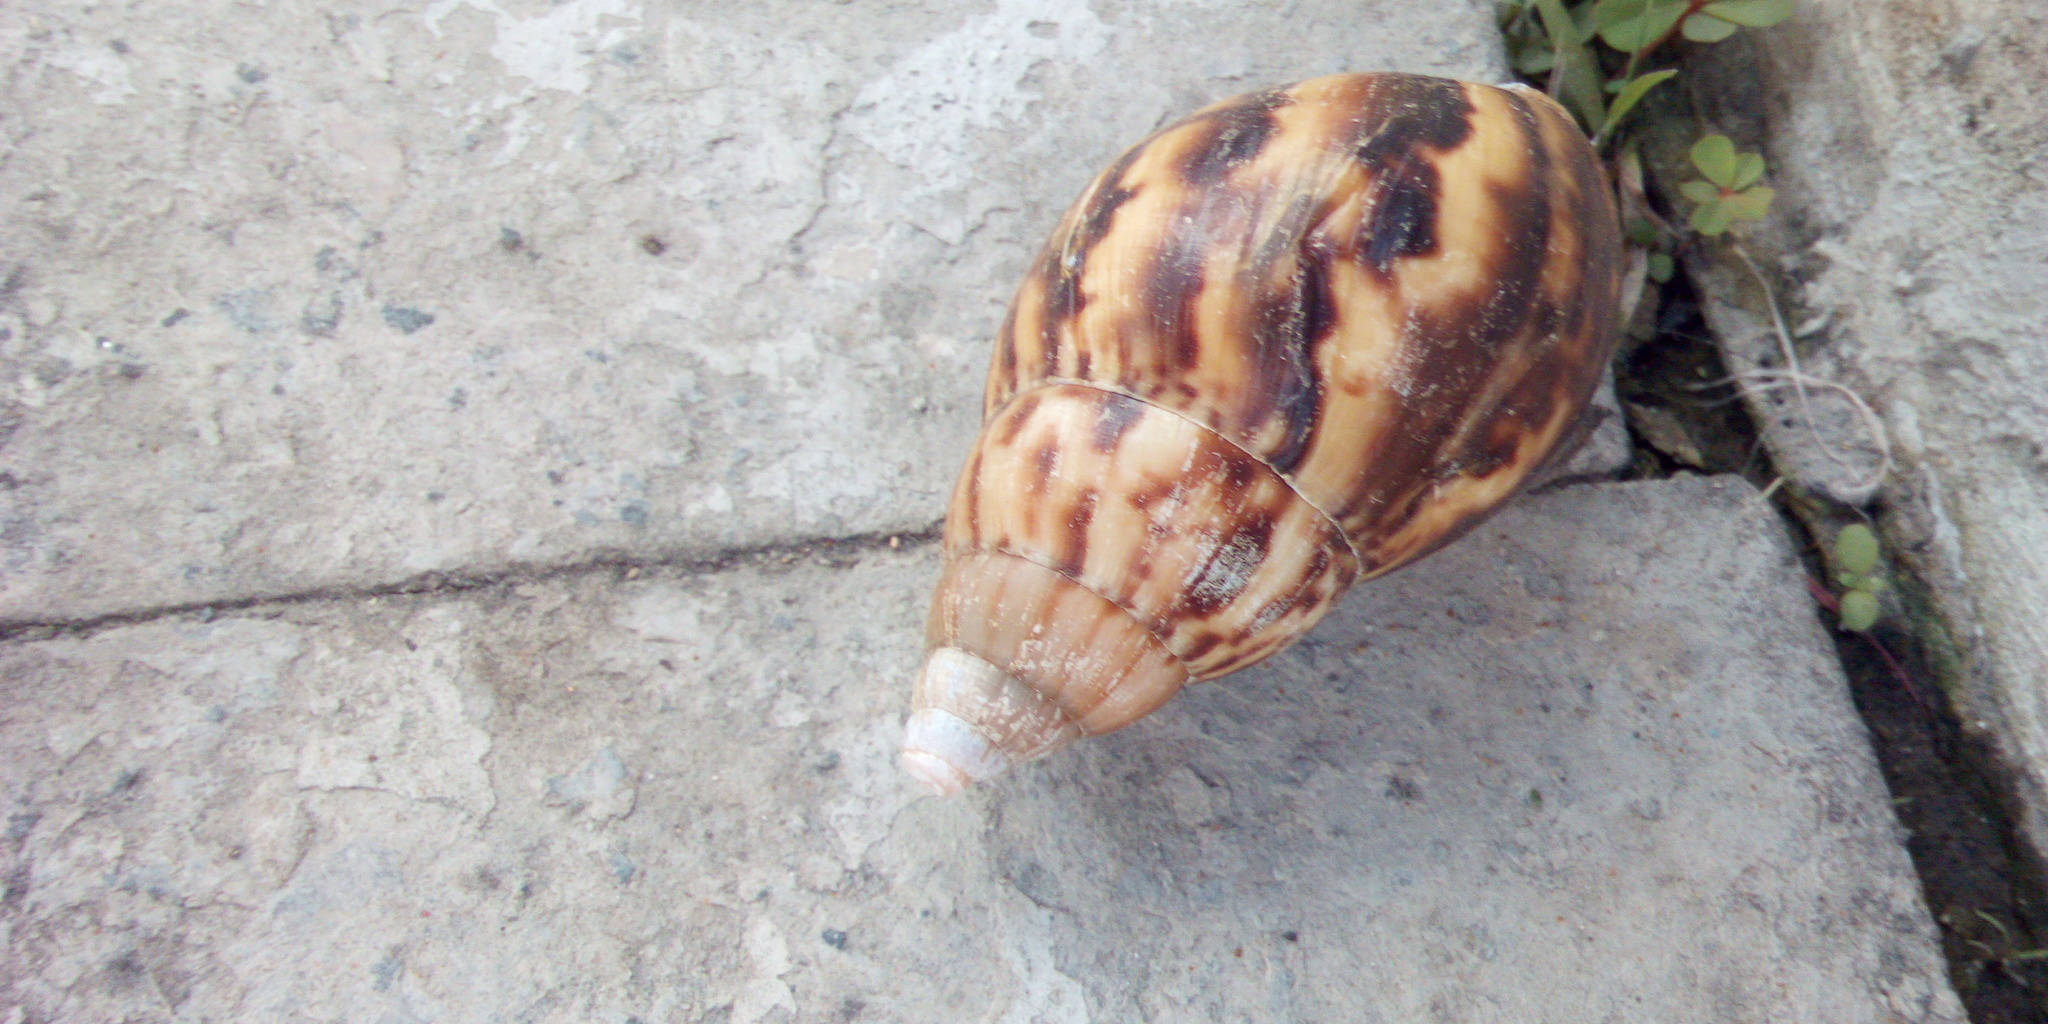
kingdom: Animalia
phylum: Mollusca
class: Gastropoda
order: Stylommatophora
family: Achatinidae
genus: Lissachatina
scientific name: Lissachatina fulica
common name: Giant african snail
